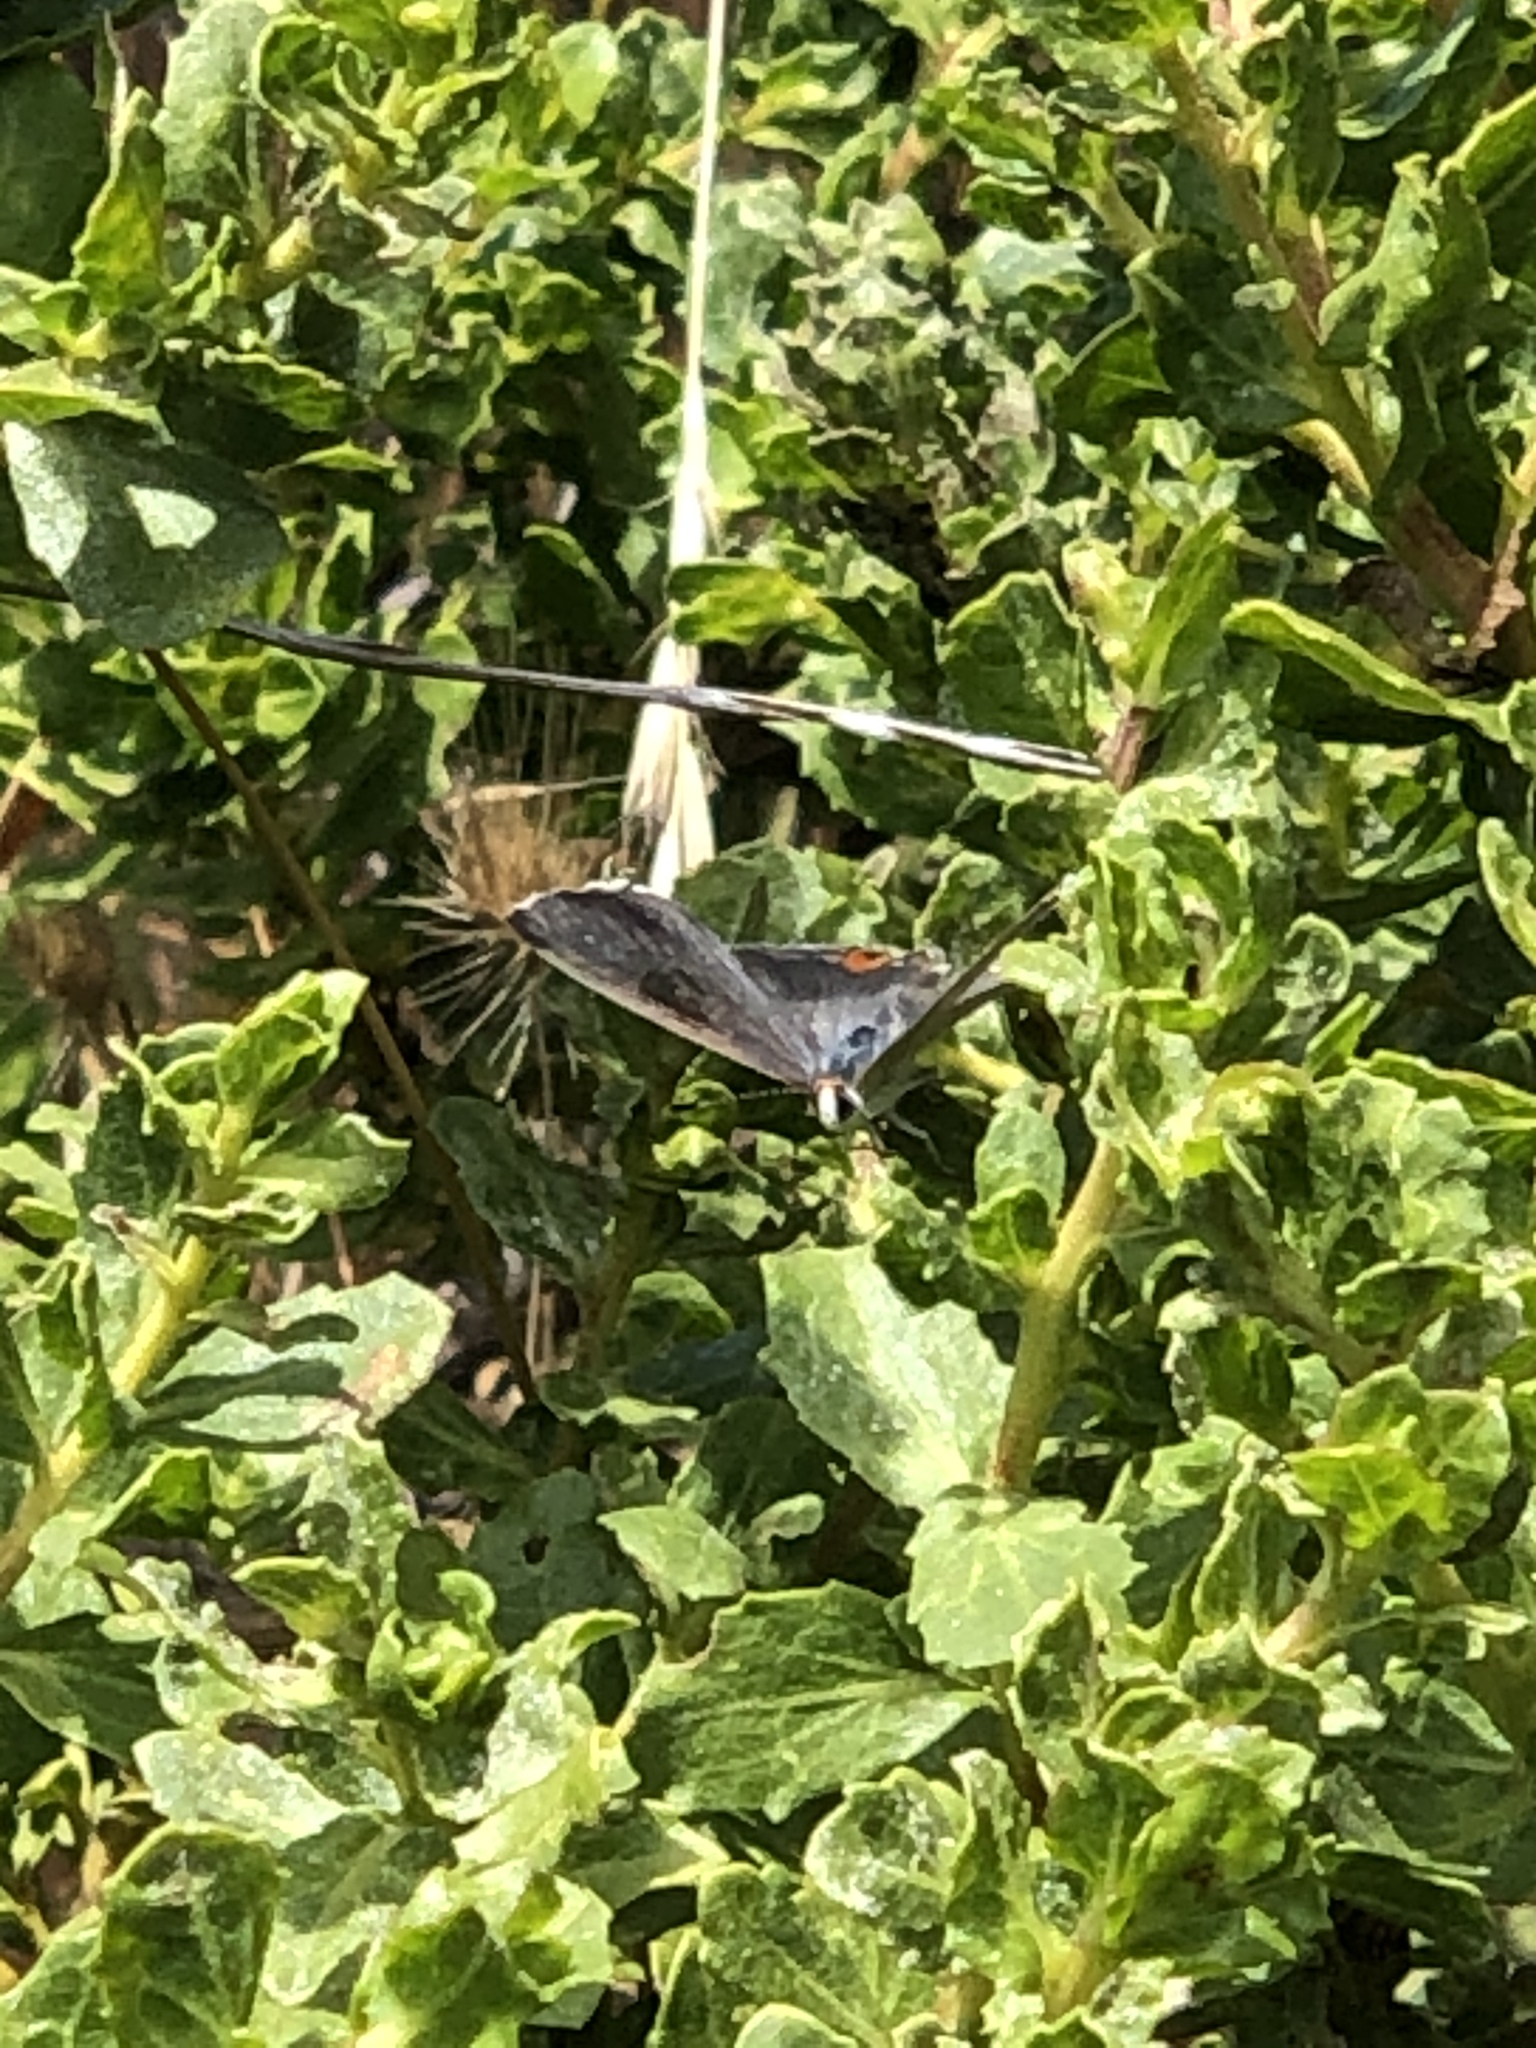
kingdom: Animalia
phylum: Arthropoda
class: Insecta
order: Lepidoptera
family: Lycaenidae
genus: Strymon
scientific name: Strymon melinus
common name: Gray hairstreak
